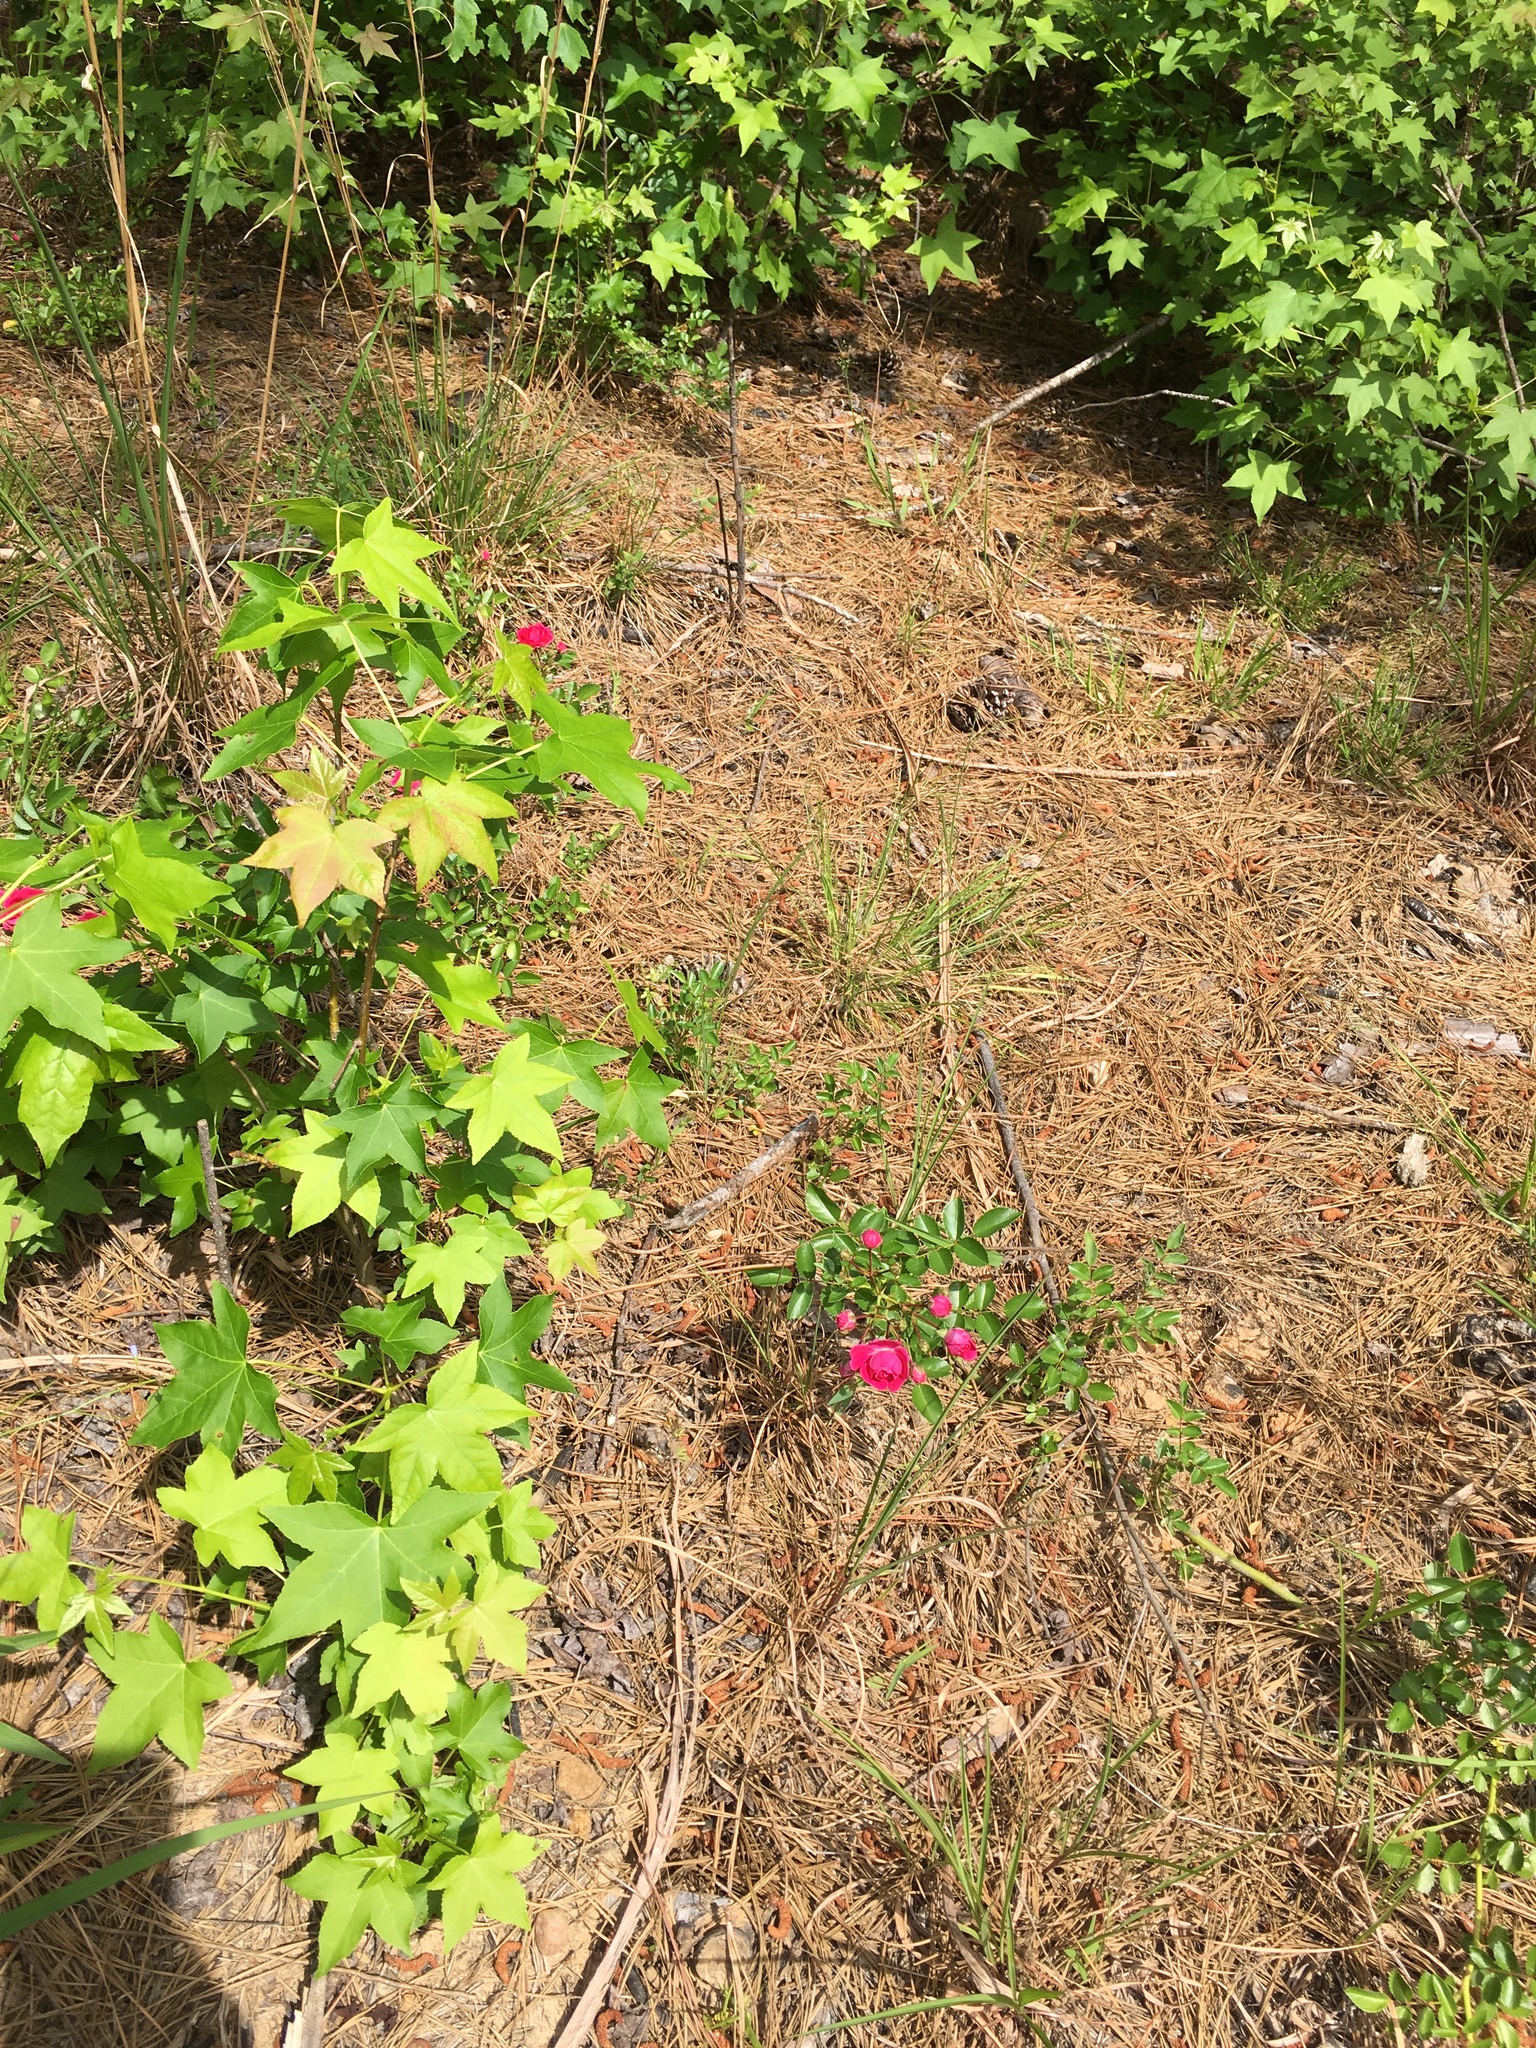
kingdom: Plantae
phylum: Tracheophyta
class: Magnoliopsida
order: Rosales
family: Rosaceae
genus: Rosa
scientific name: Rosa
